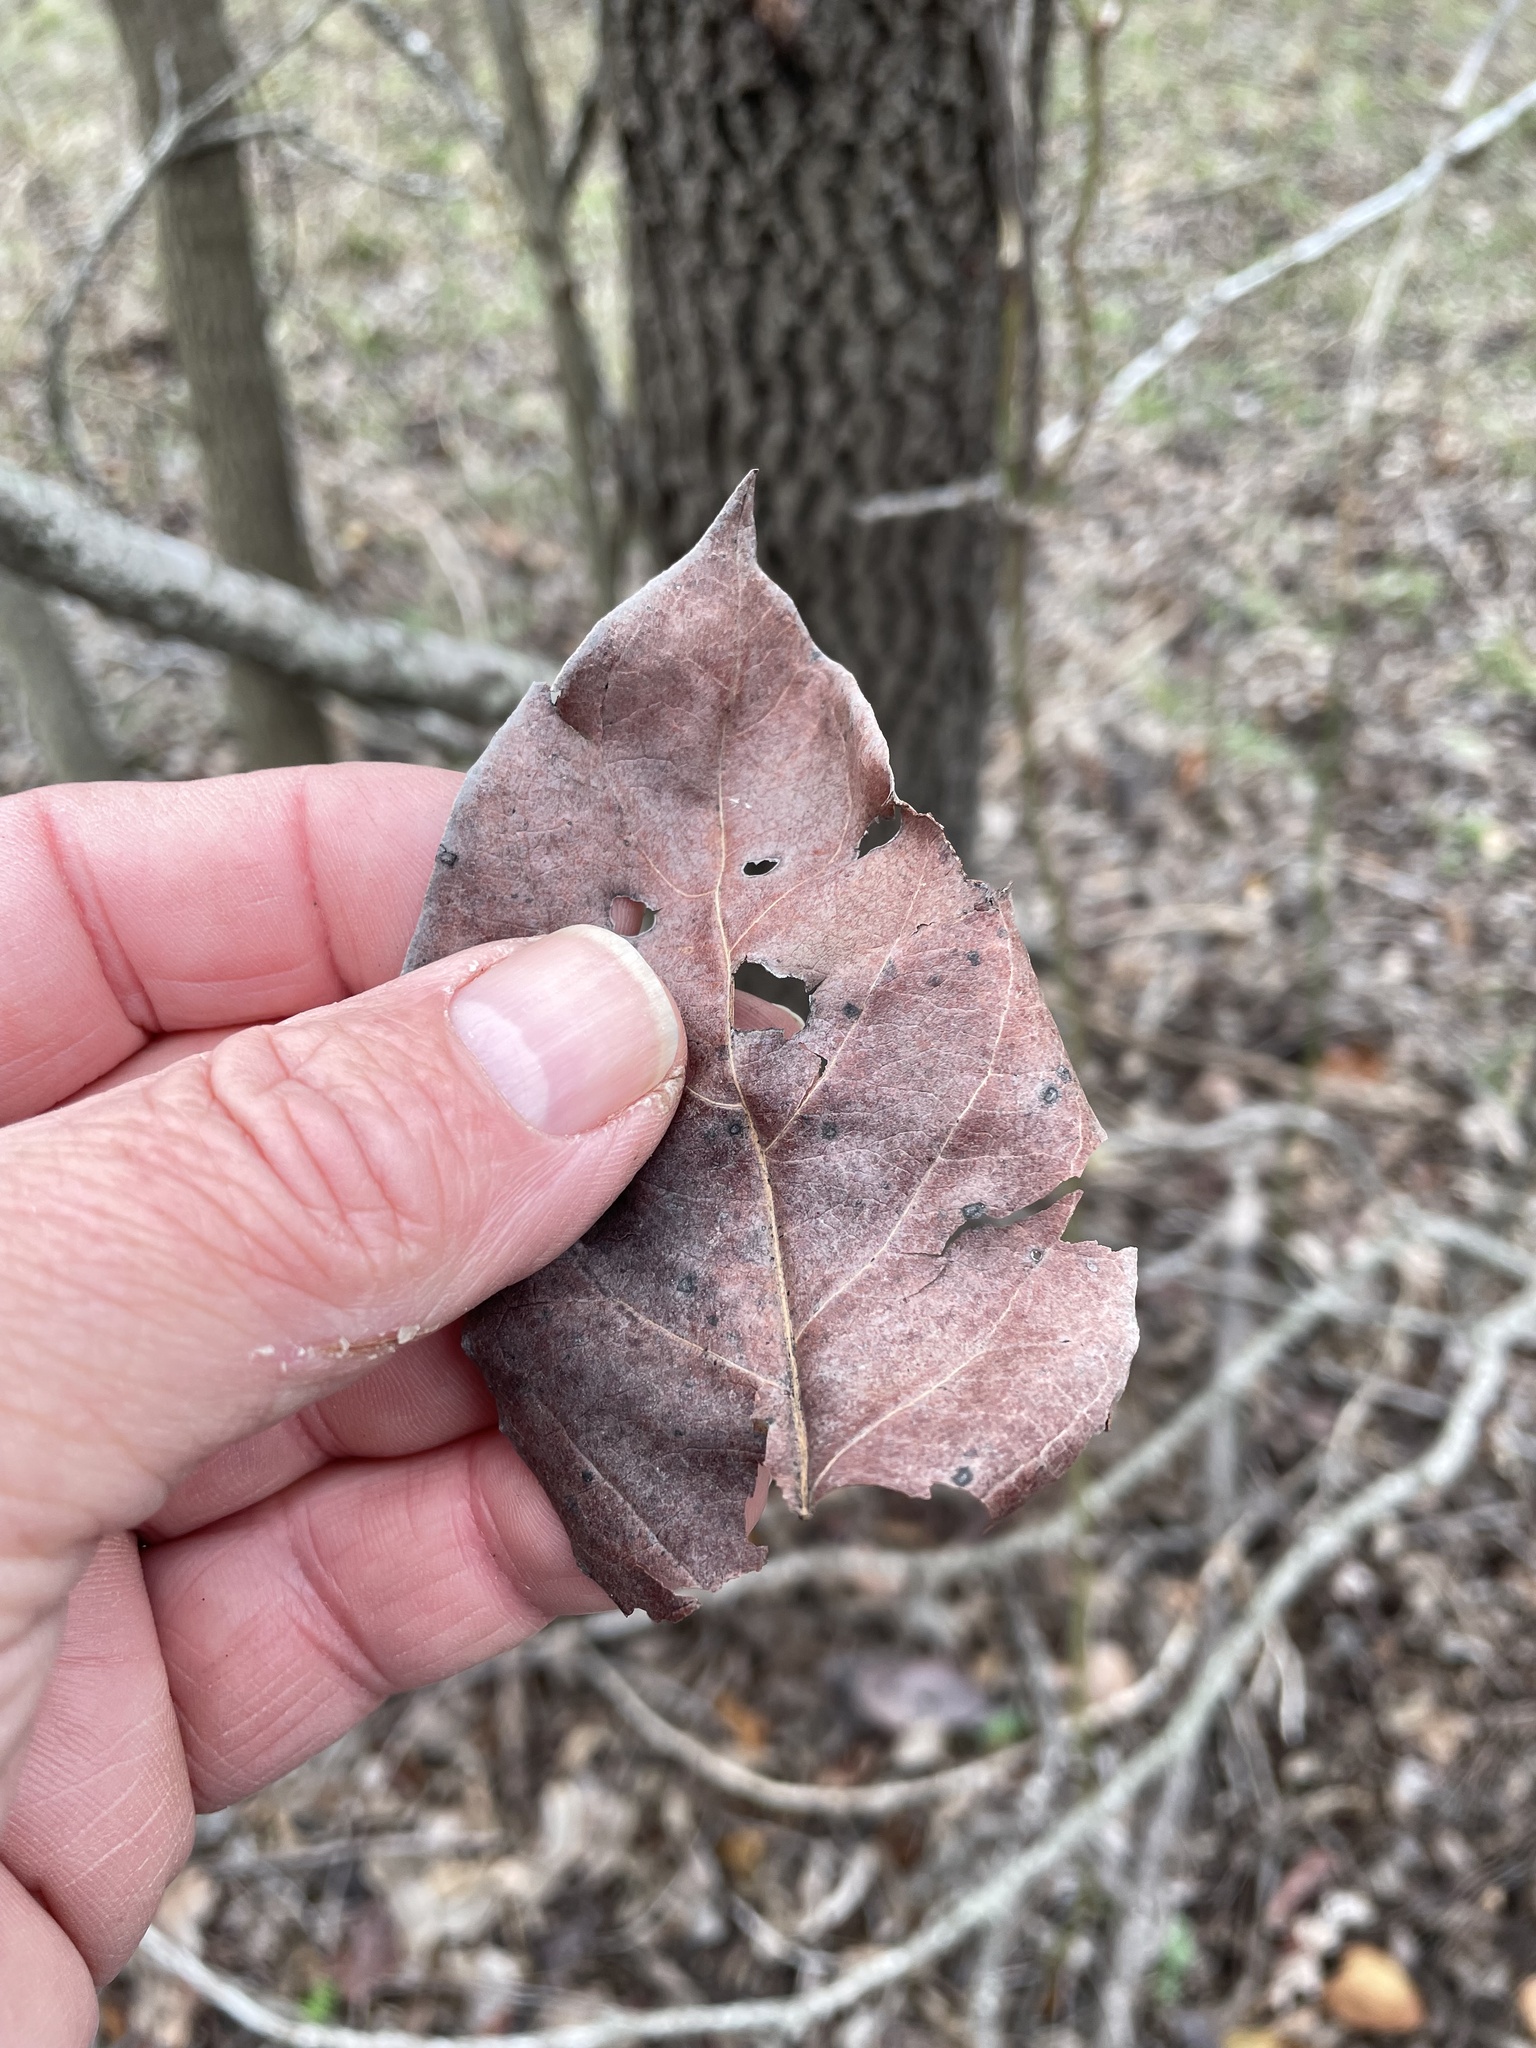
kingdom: Plantae
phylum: Tracheophyta
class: Magnoliopsida
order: Ericales
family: Ebenaceae
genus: Diospyros
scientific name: Diospyros virginiana
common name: Persimmon
